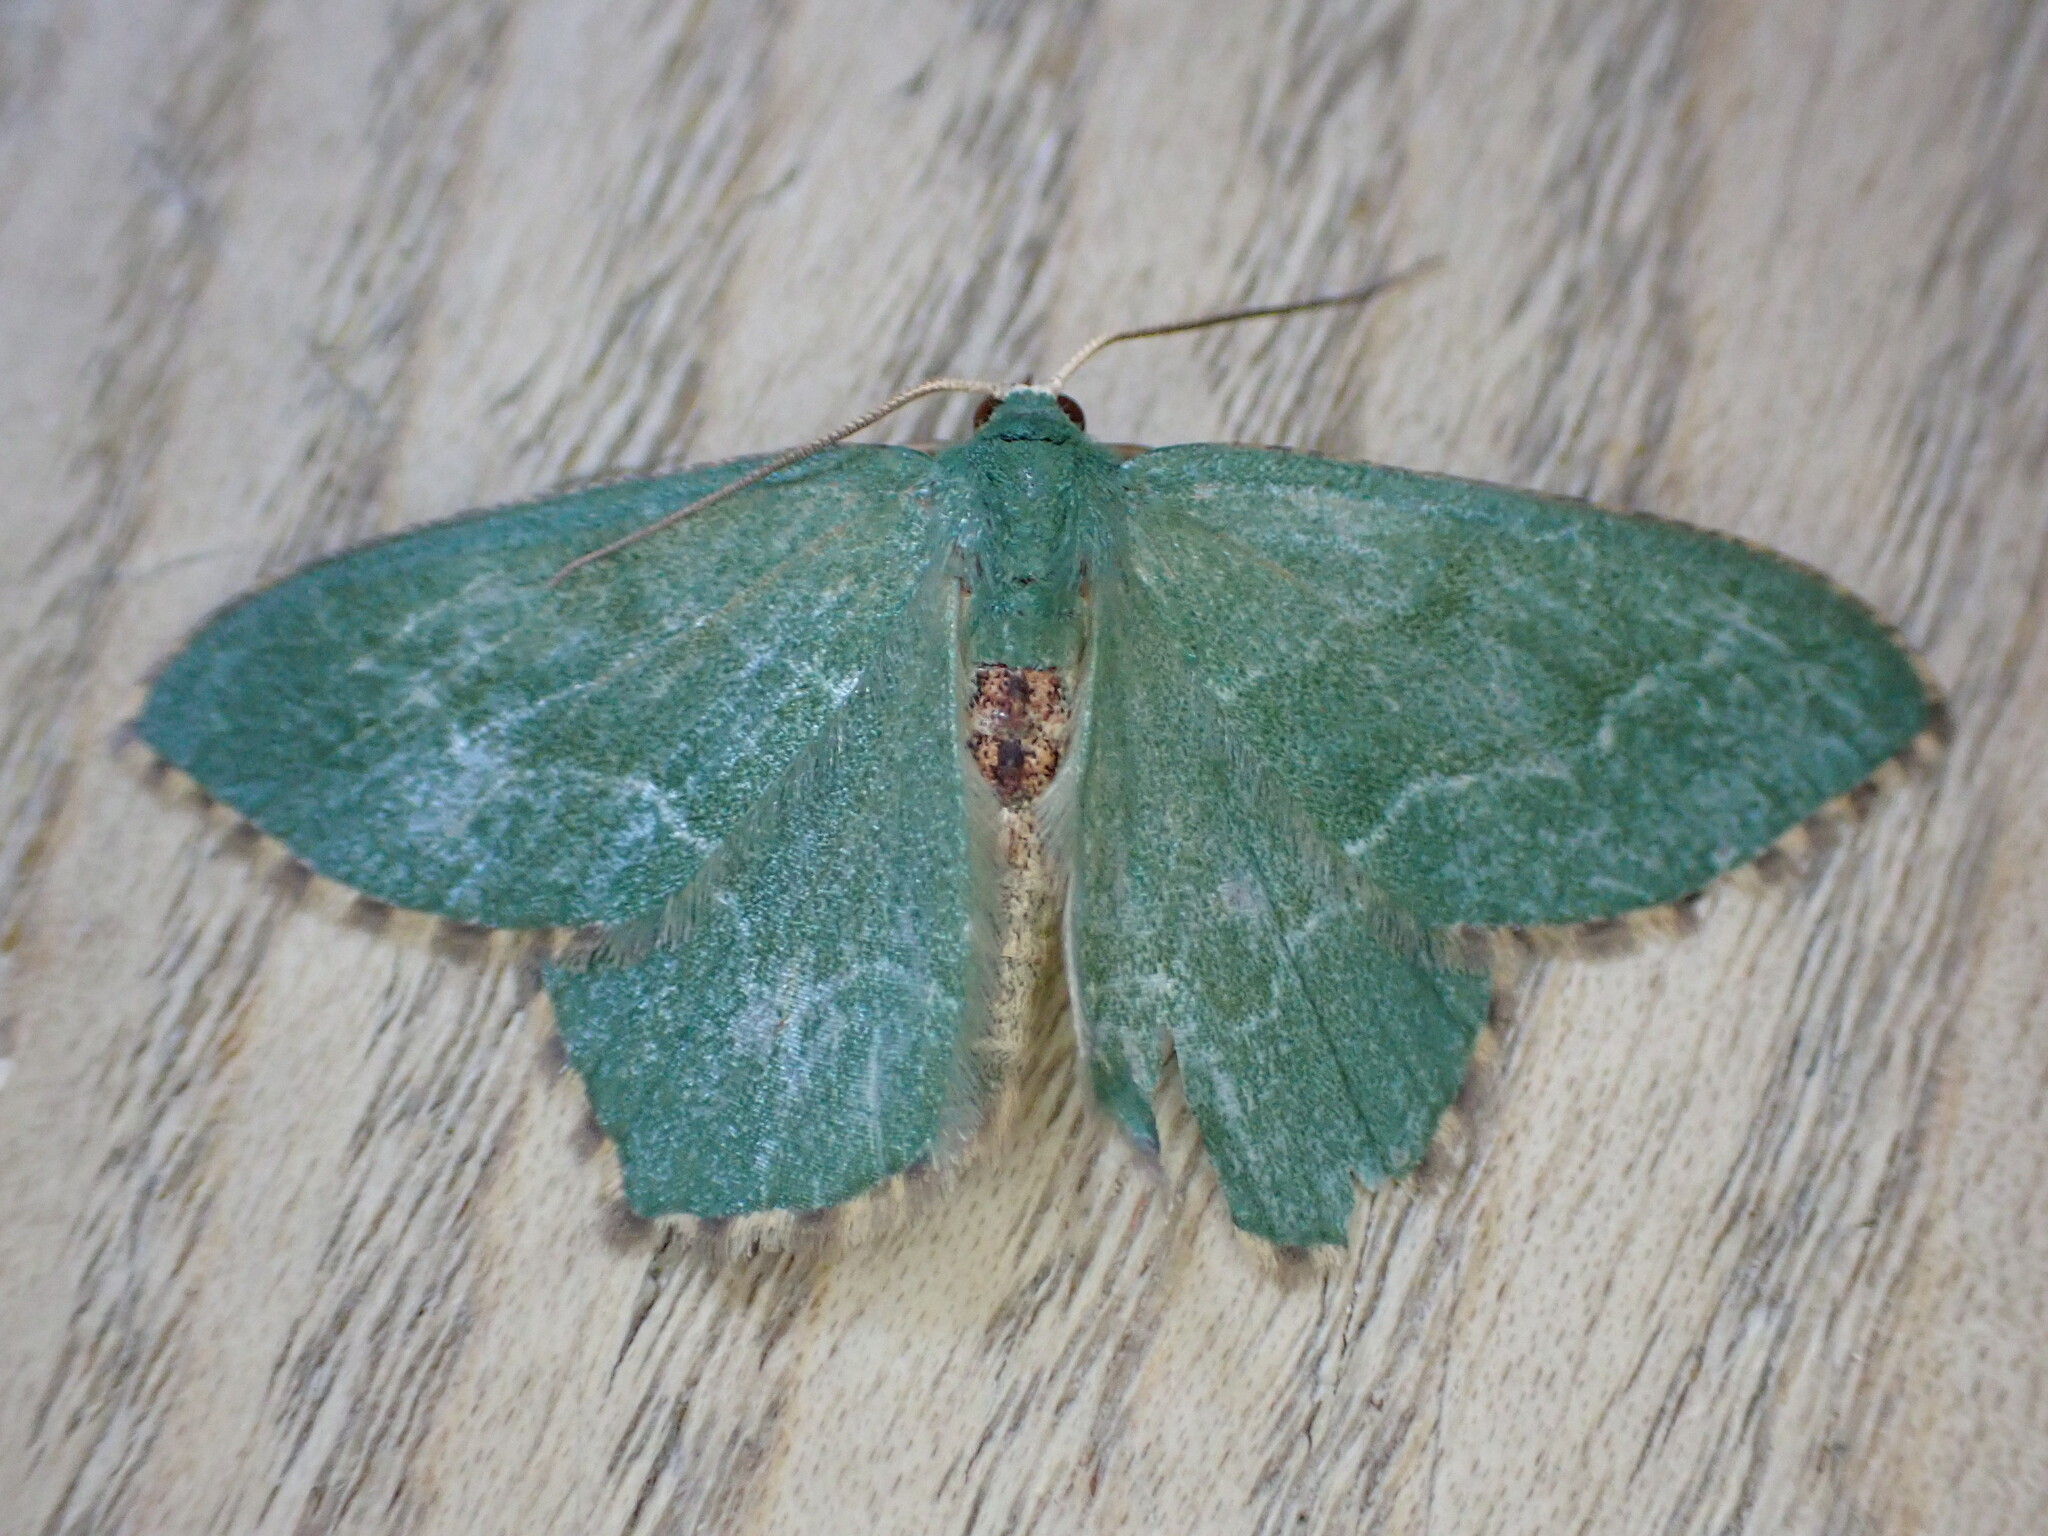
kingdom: Animalia
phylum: Arthropoda
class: Insecta
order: Lepidoptera
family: Geometridae
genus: Hemithea
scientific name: Hemithea aestivaria
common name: Common emerald
